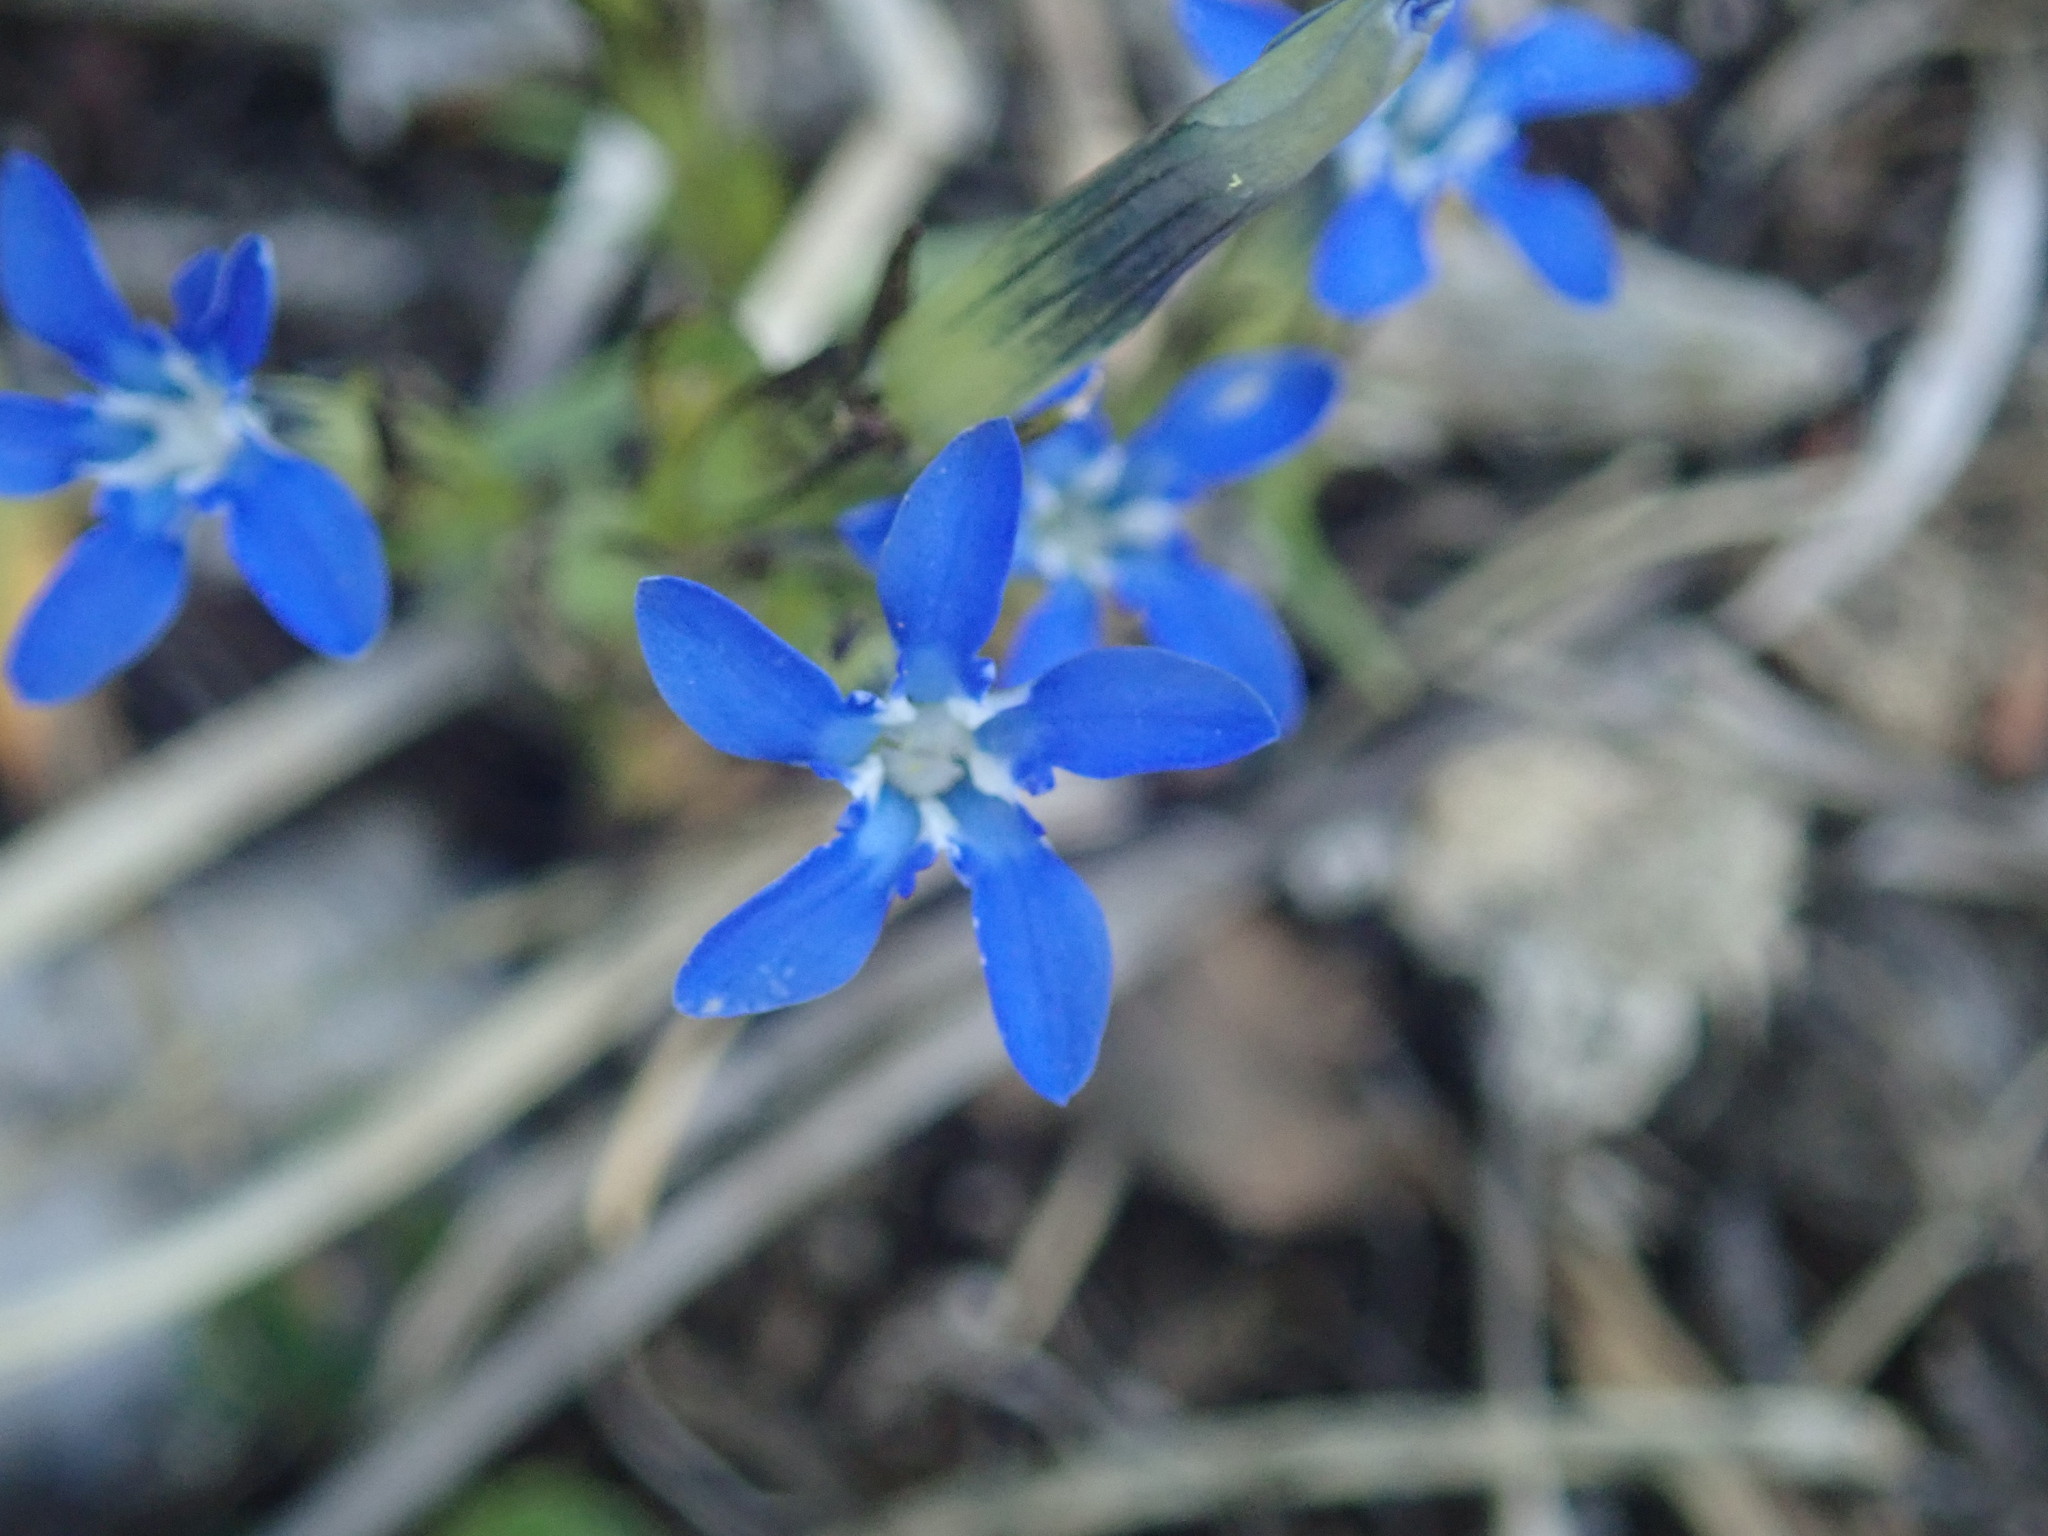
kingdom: Plantae
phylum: Tracheophyta
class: Magnoliopsida
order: Gentianales
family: Gentianaceae
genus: Gentiana
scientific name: Gentiana nivalis
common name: Alpine gentian
